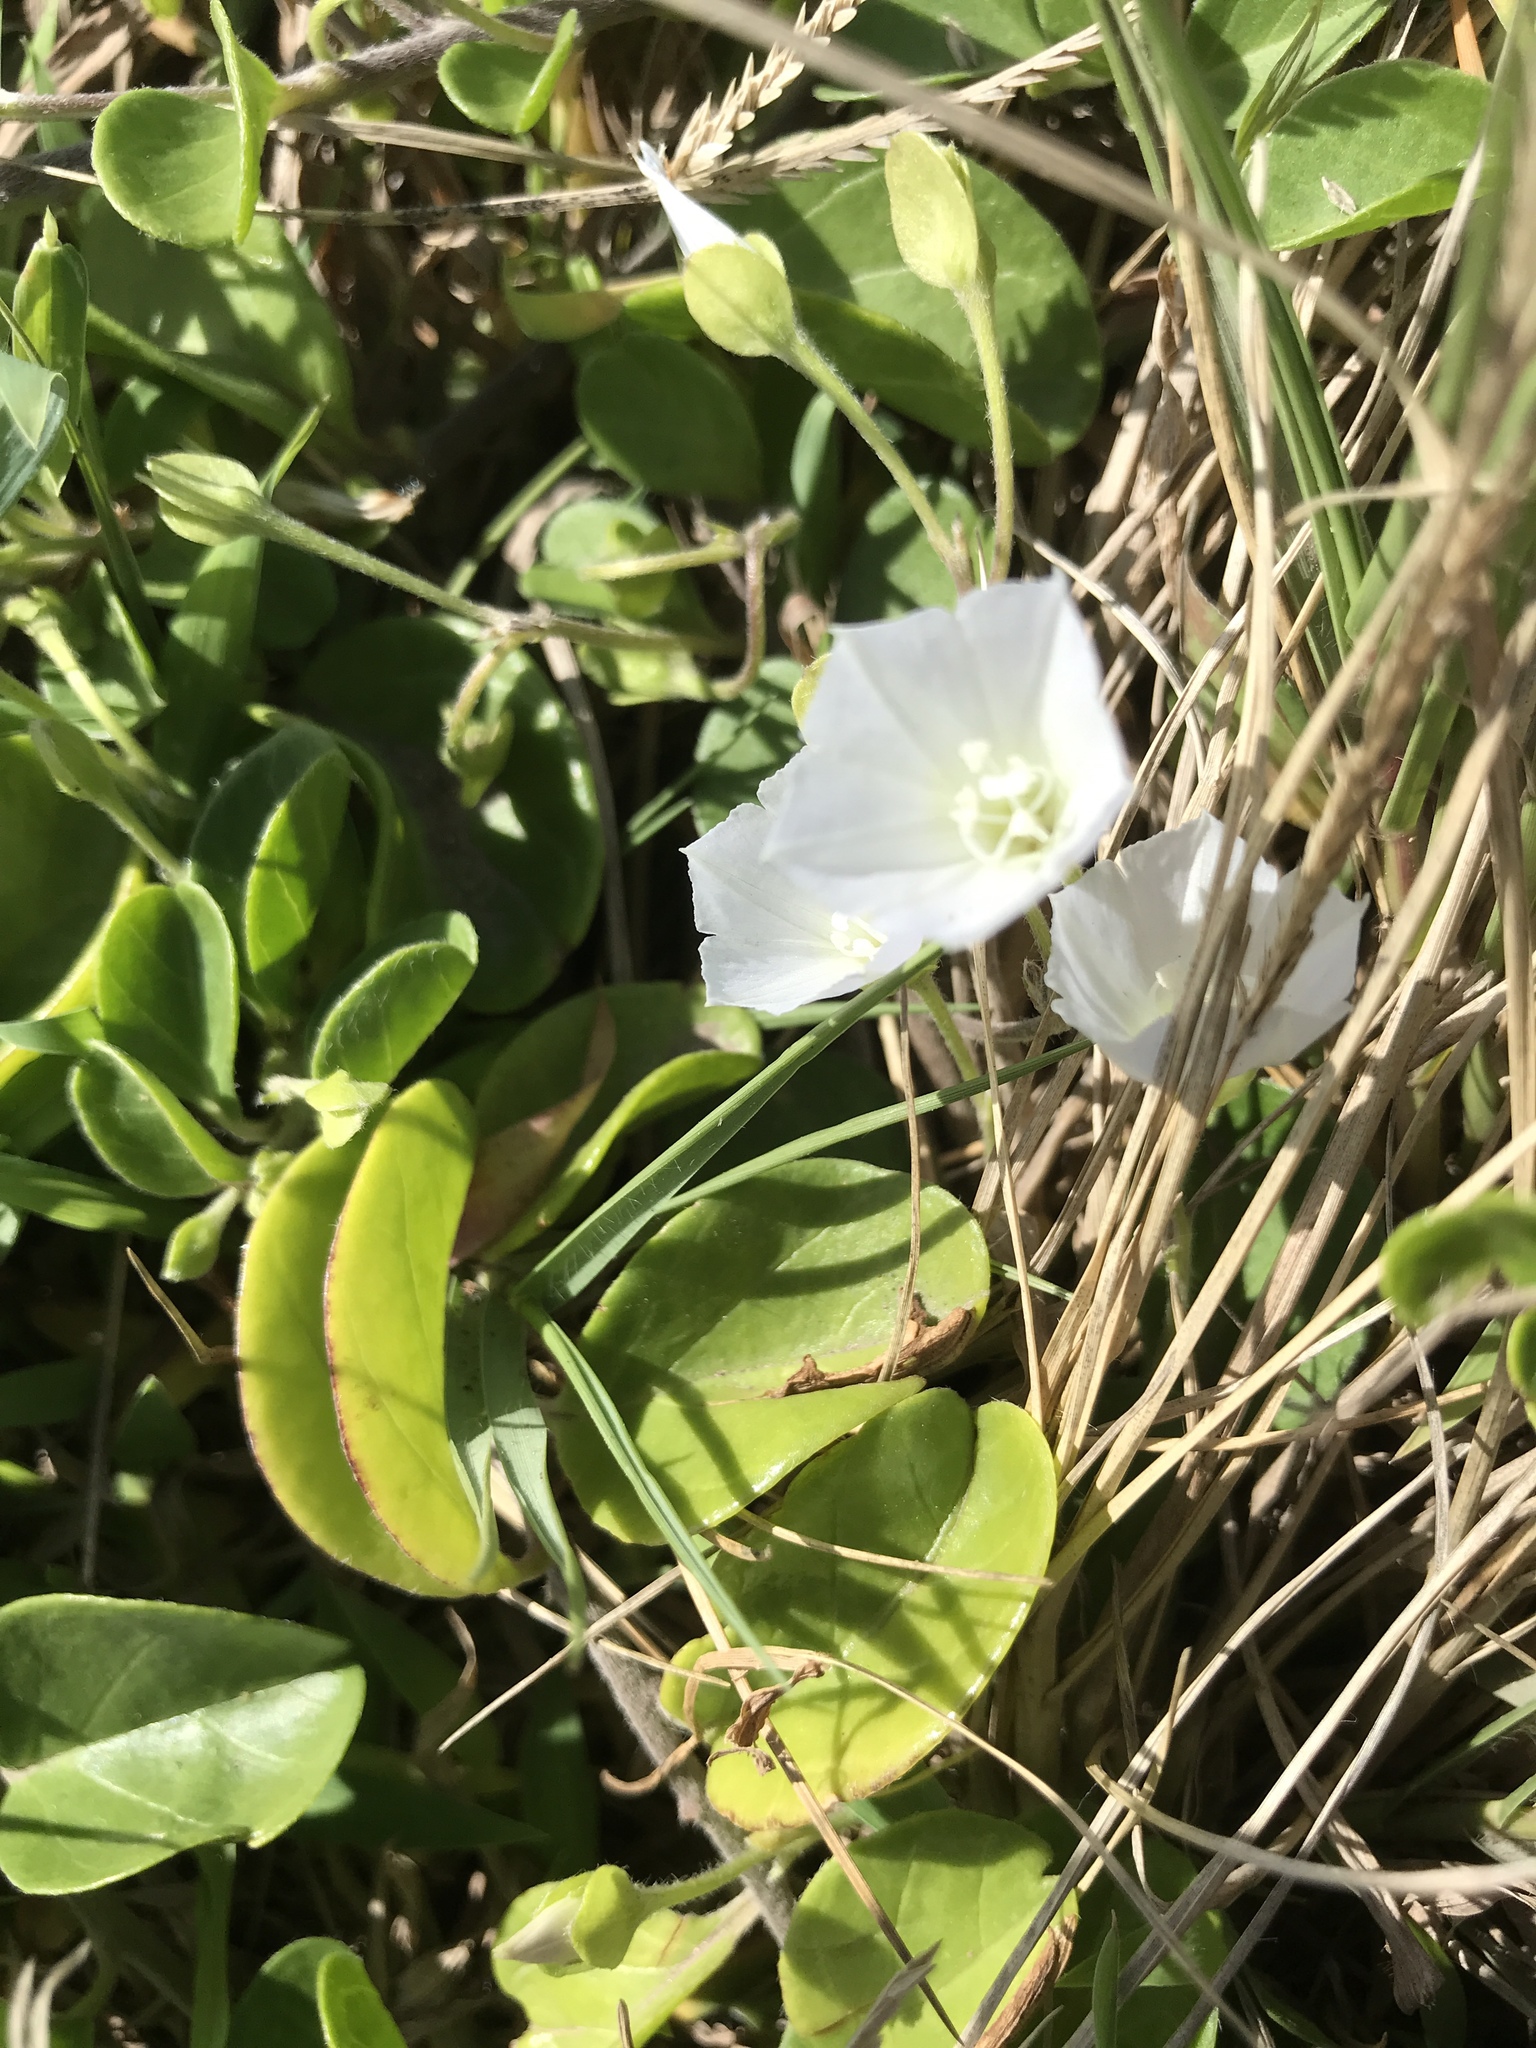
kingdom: Plantae
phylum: Tracheophyta
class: Magnoliopsida
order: Solanales
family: Convolvulaceae
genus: Jacquemontia
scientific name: Jacquemontia sandwicensis
